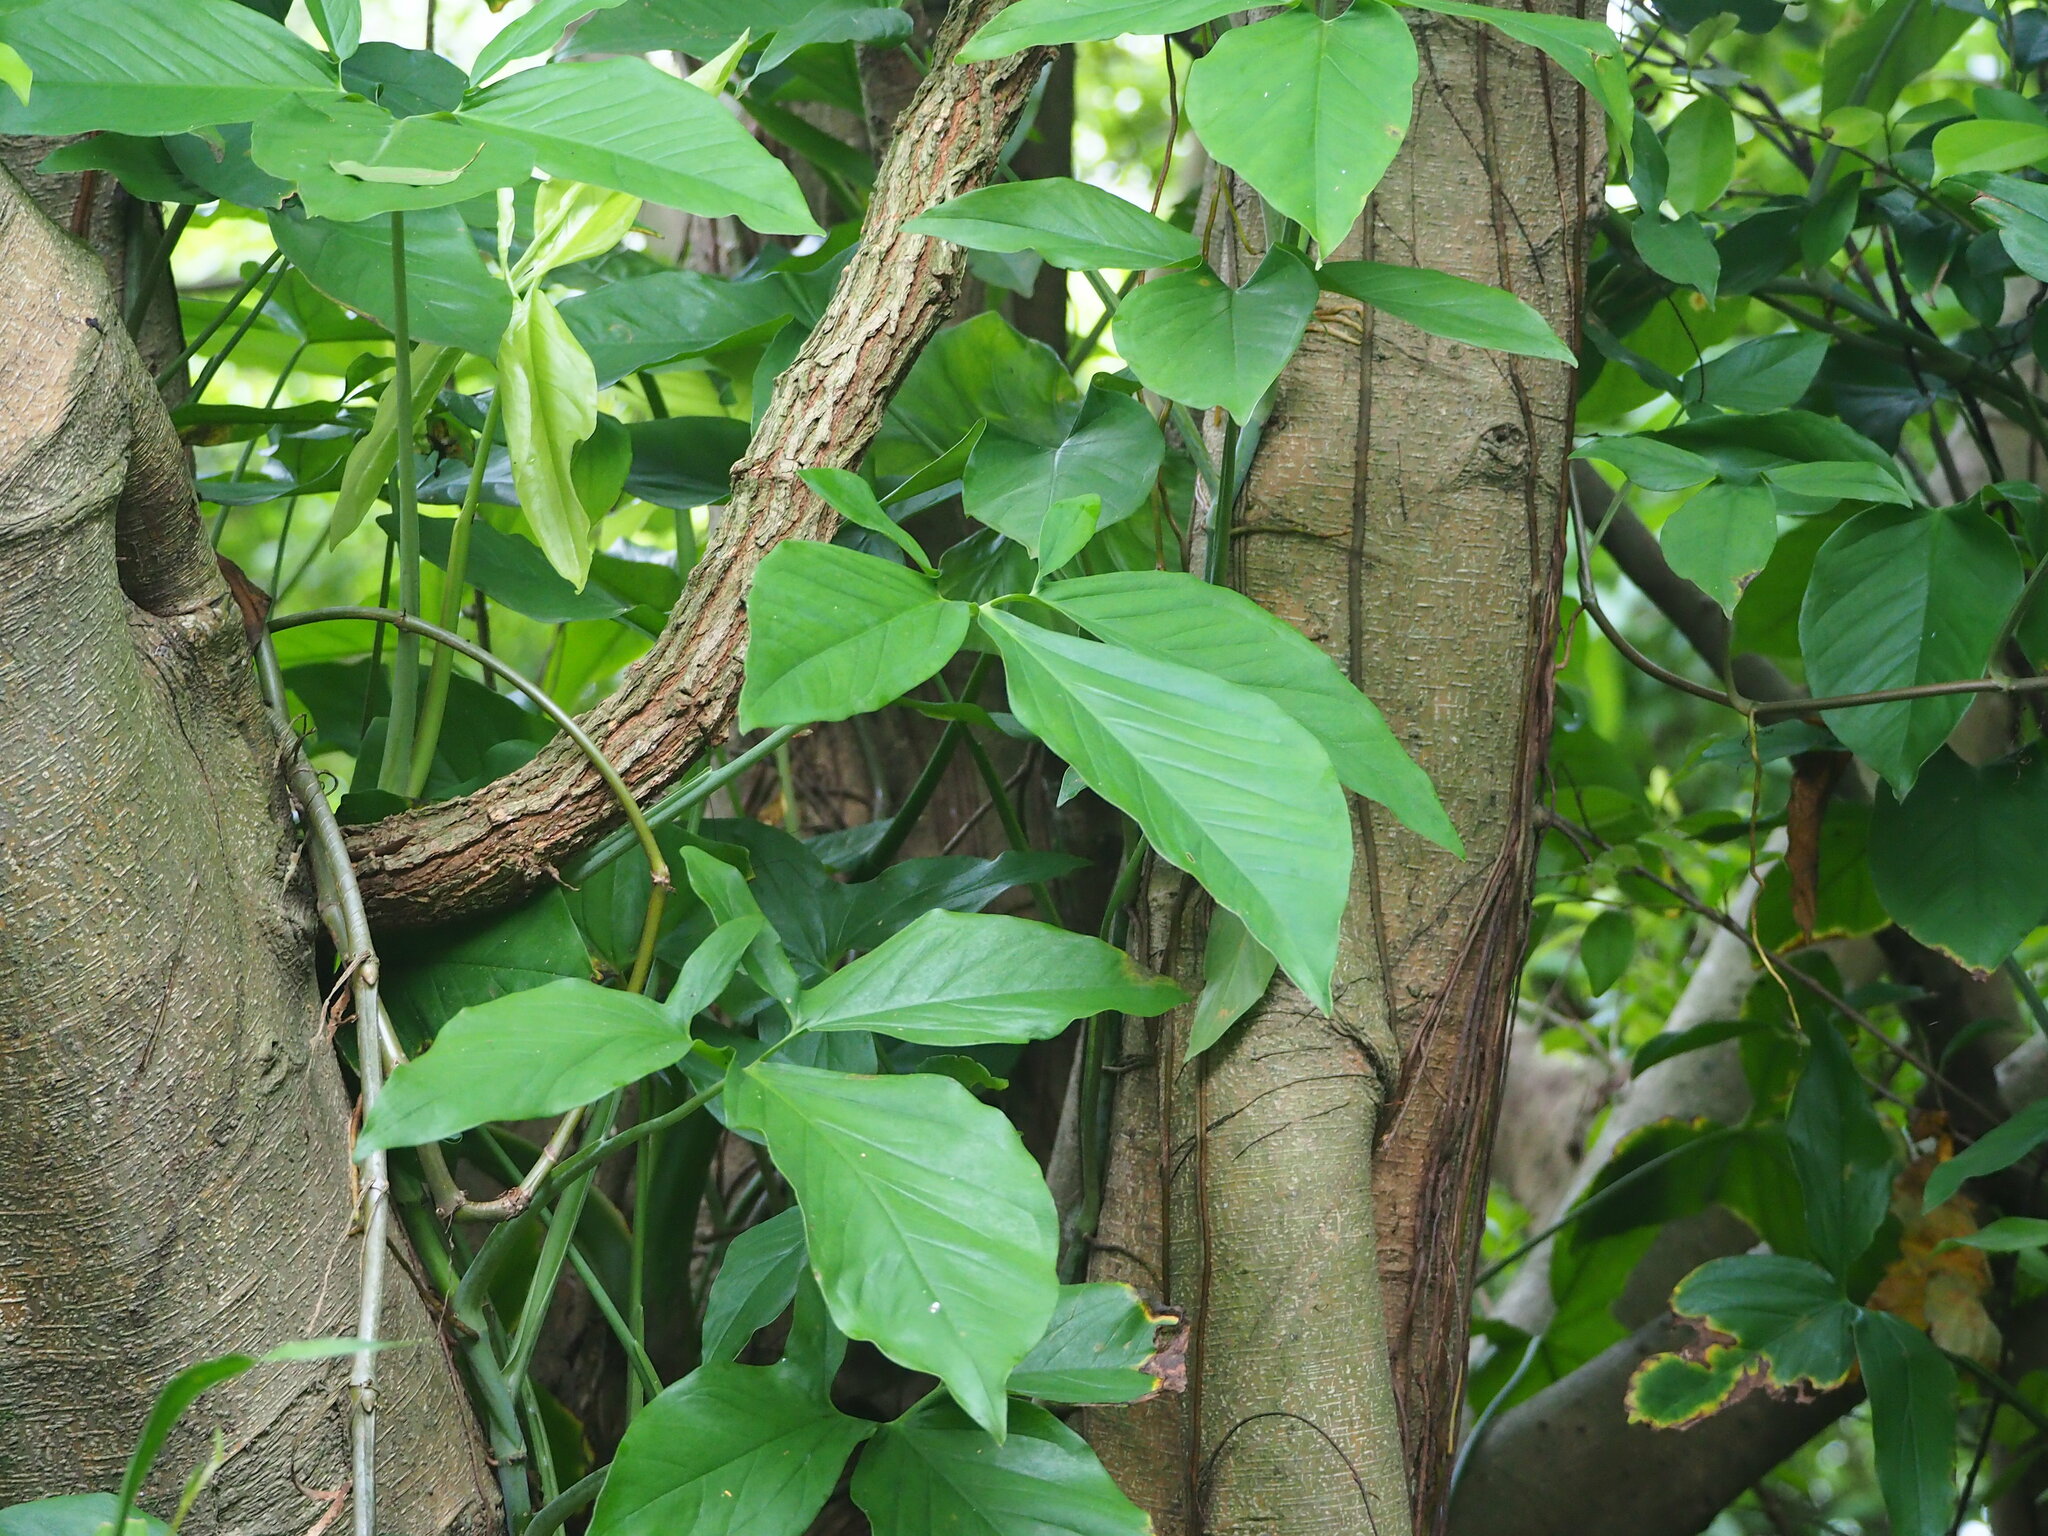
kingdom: Plantae
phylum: Tracheophyta
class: Liliopsida
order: Alismatales
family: Araceae
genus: Syngonium
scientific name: Syngonium angustatum
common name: Fivefingers
